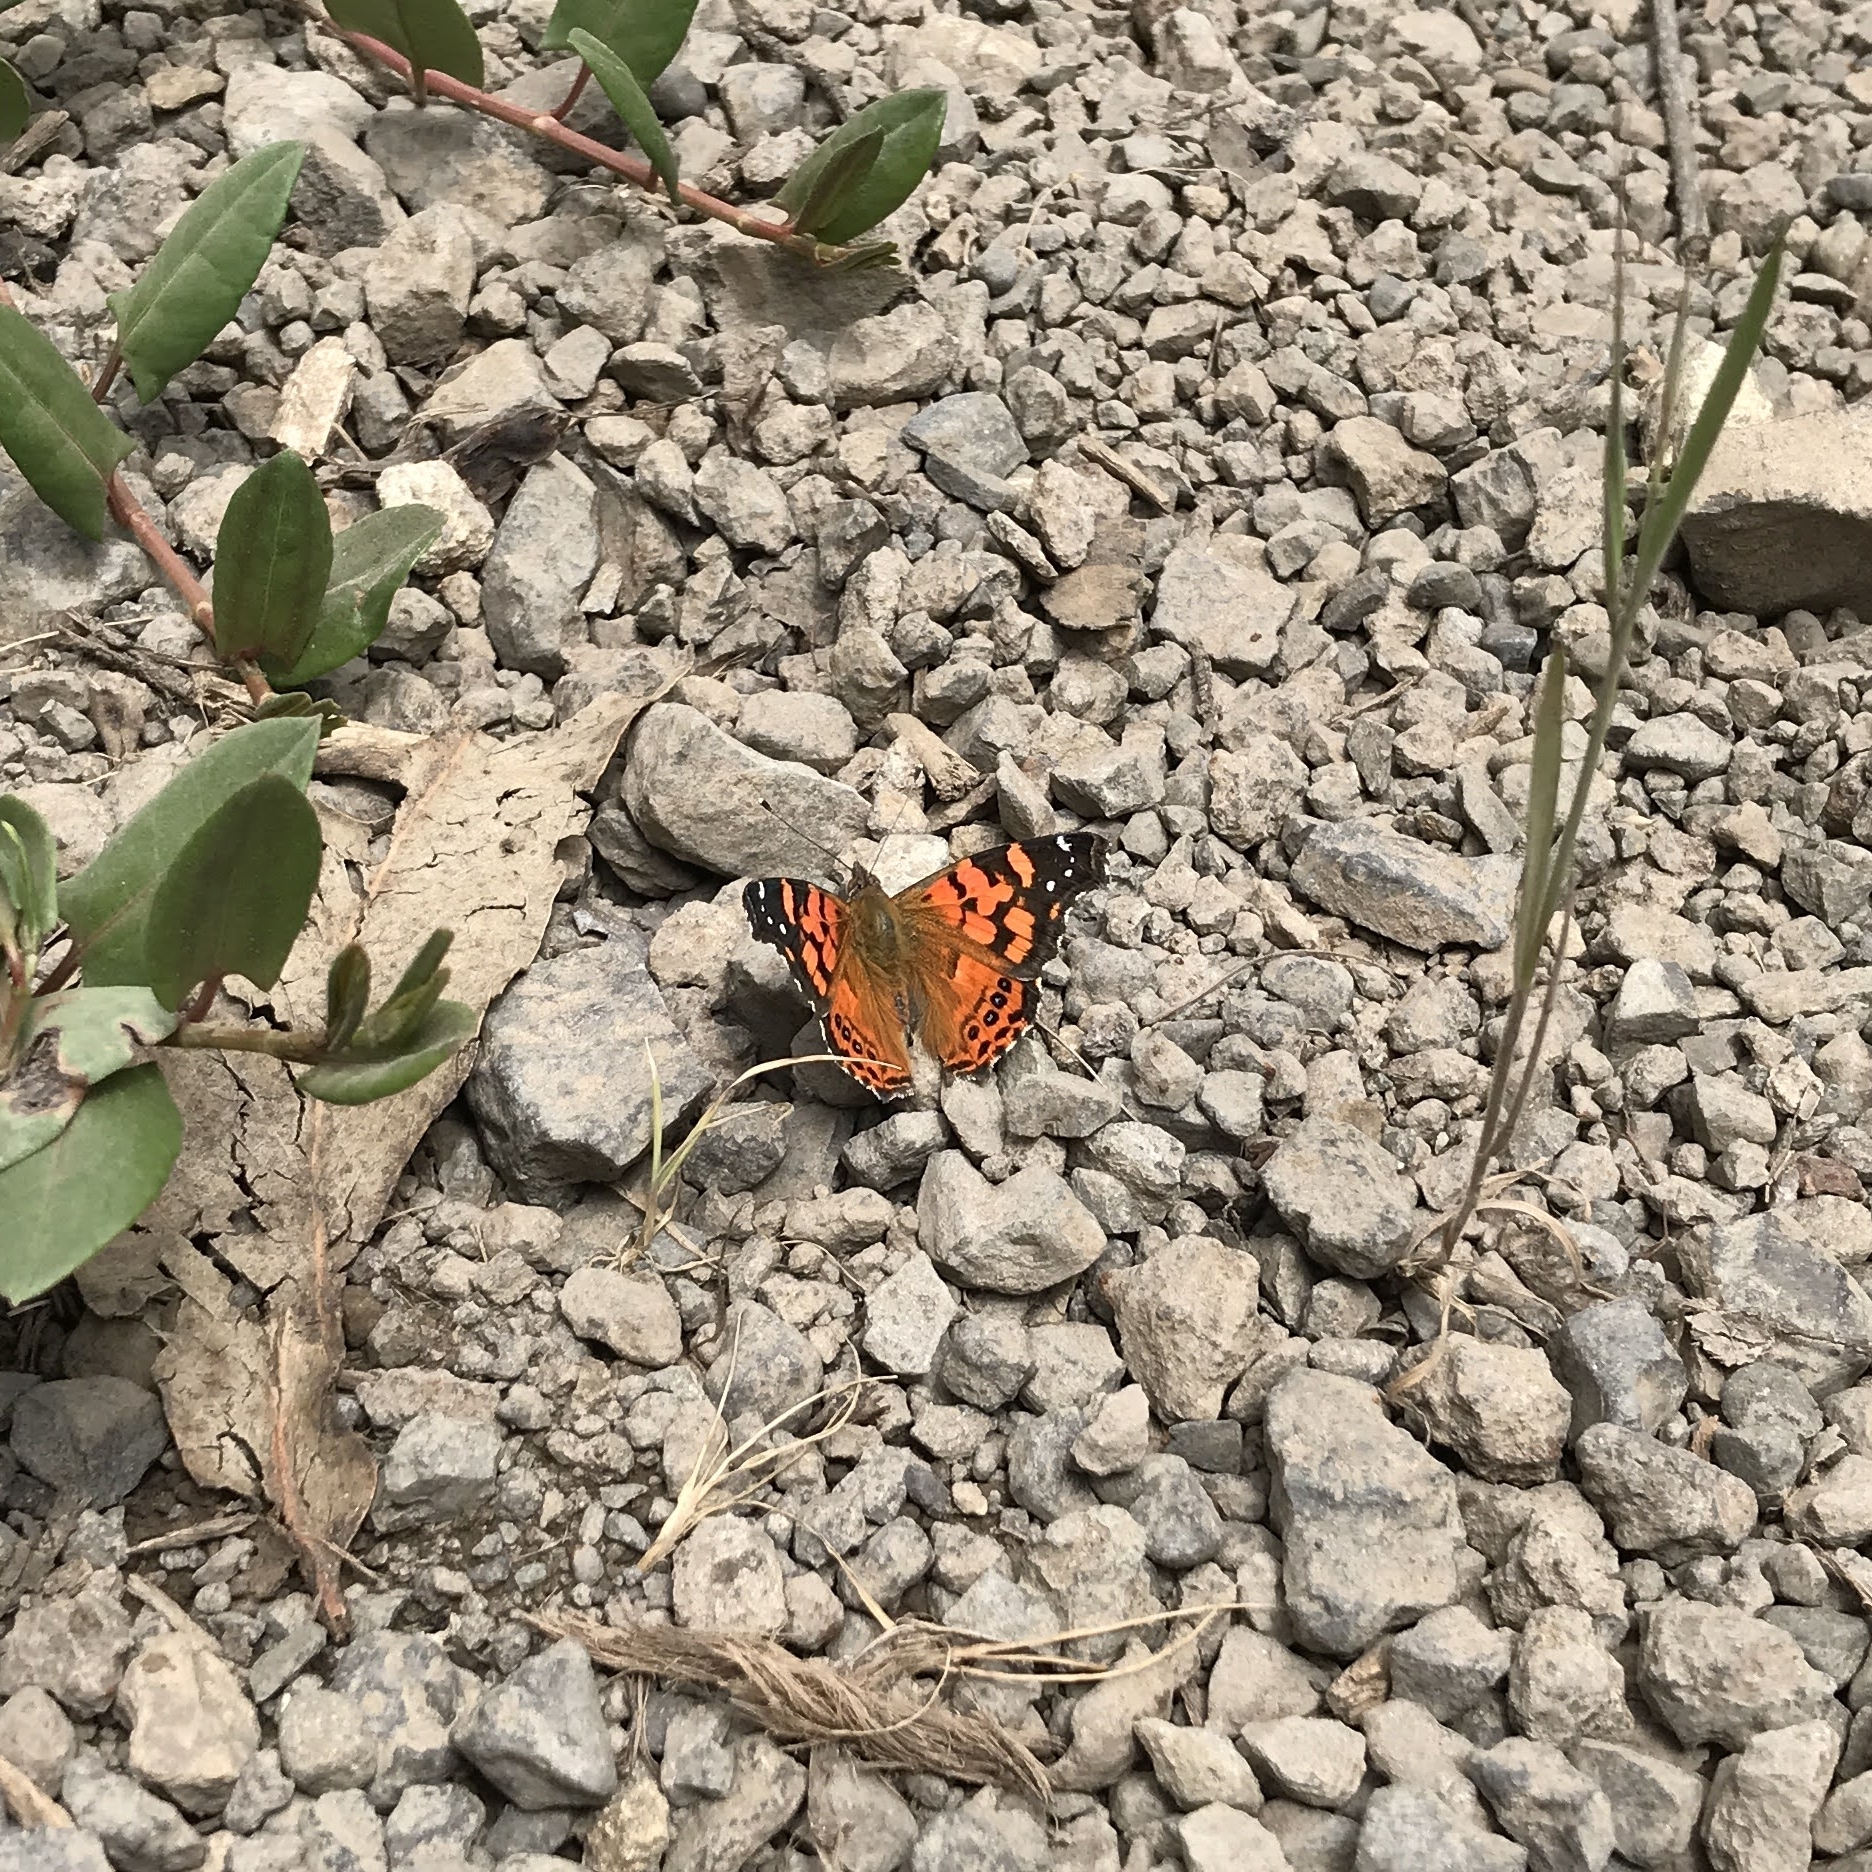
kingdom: Animalia
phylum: Arthropoda
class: Insecta
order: Lepidoptera
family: Nymphalidae
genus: Vanessa
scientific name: Vanessa carye
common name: Subtropical lady
